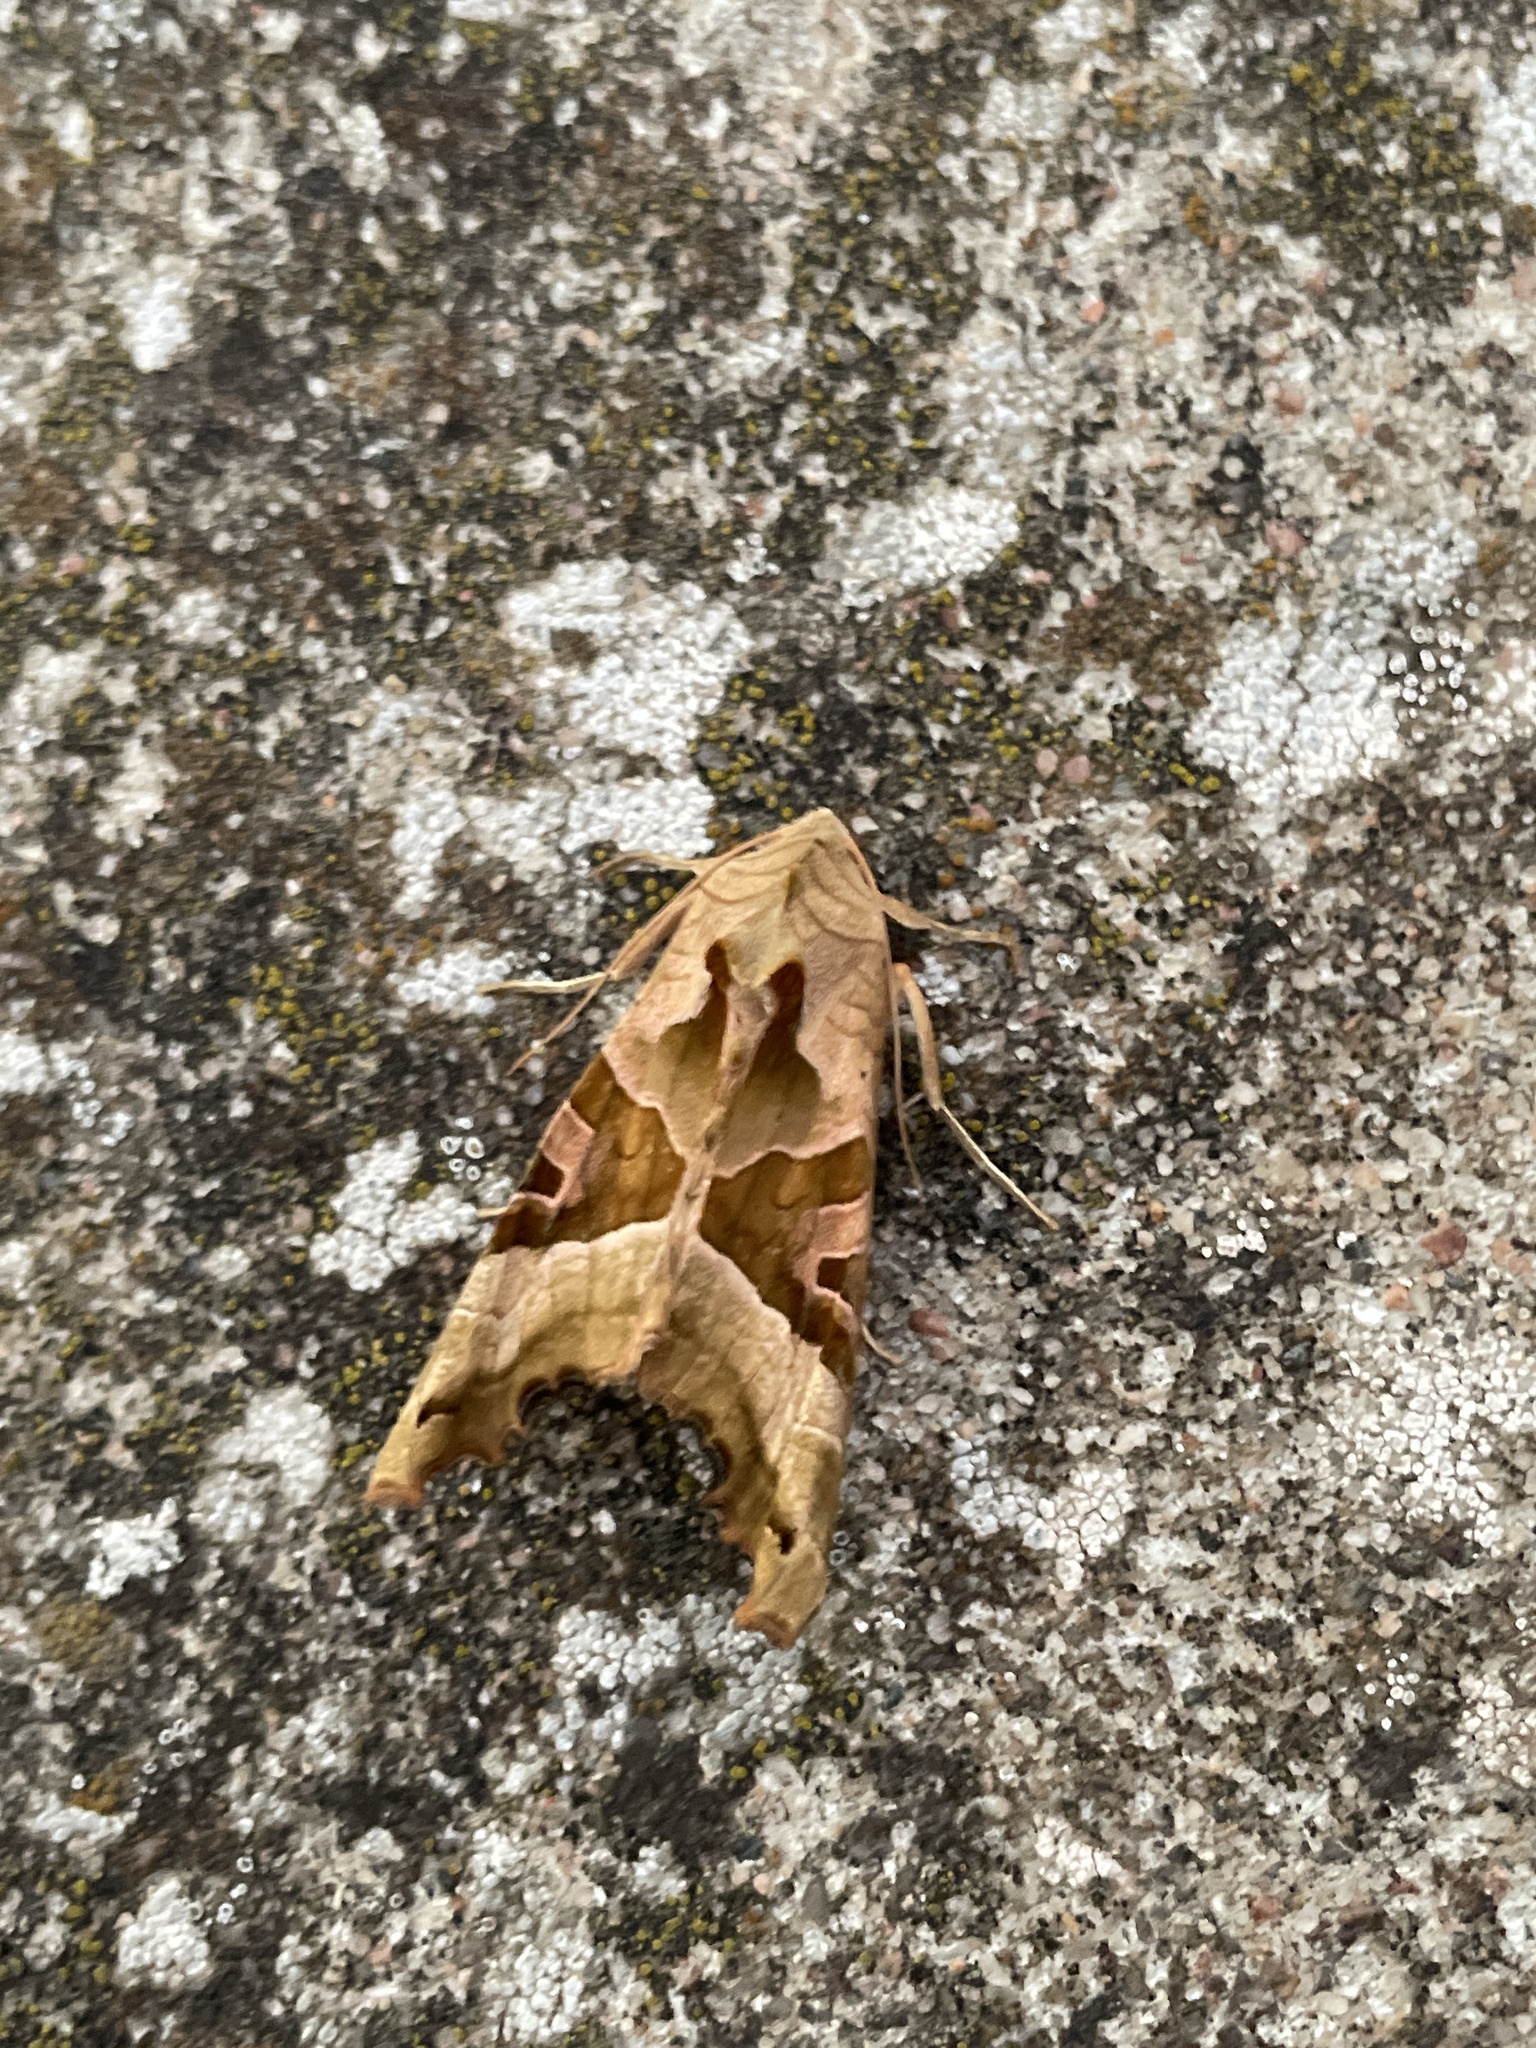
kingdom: Animalia
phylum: Arthropoda
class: Insecta
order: Lepidoptera
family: Noctuidae
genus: Phlogophora
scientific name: Phlogophora meticulosa
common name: Angle shades
